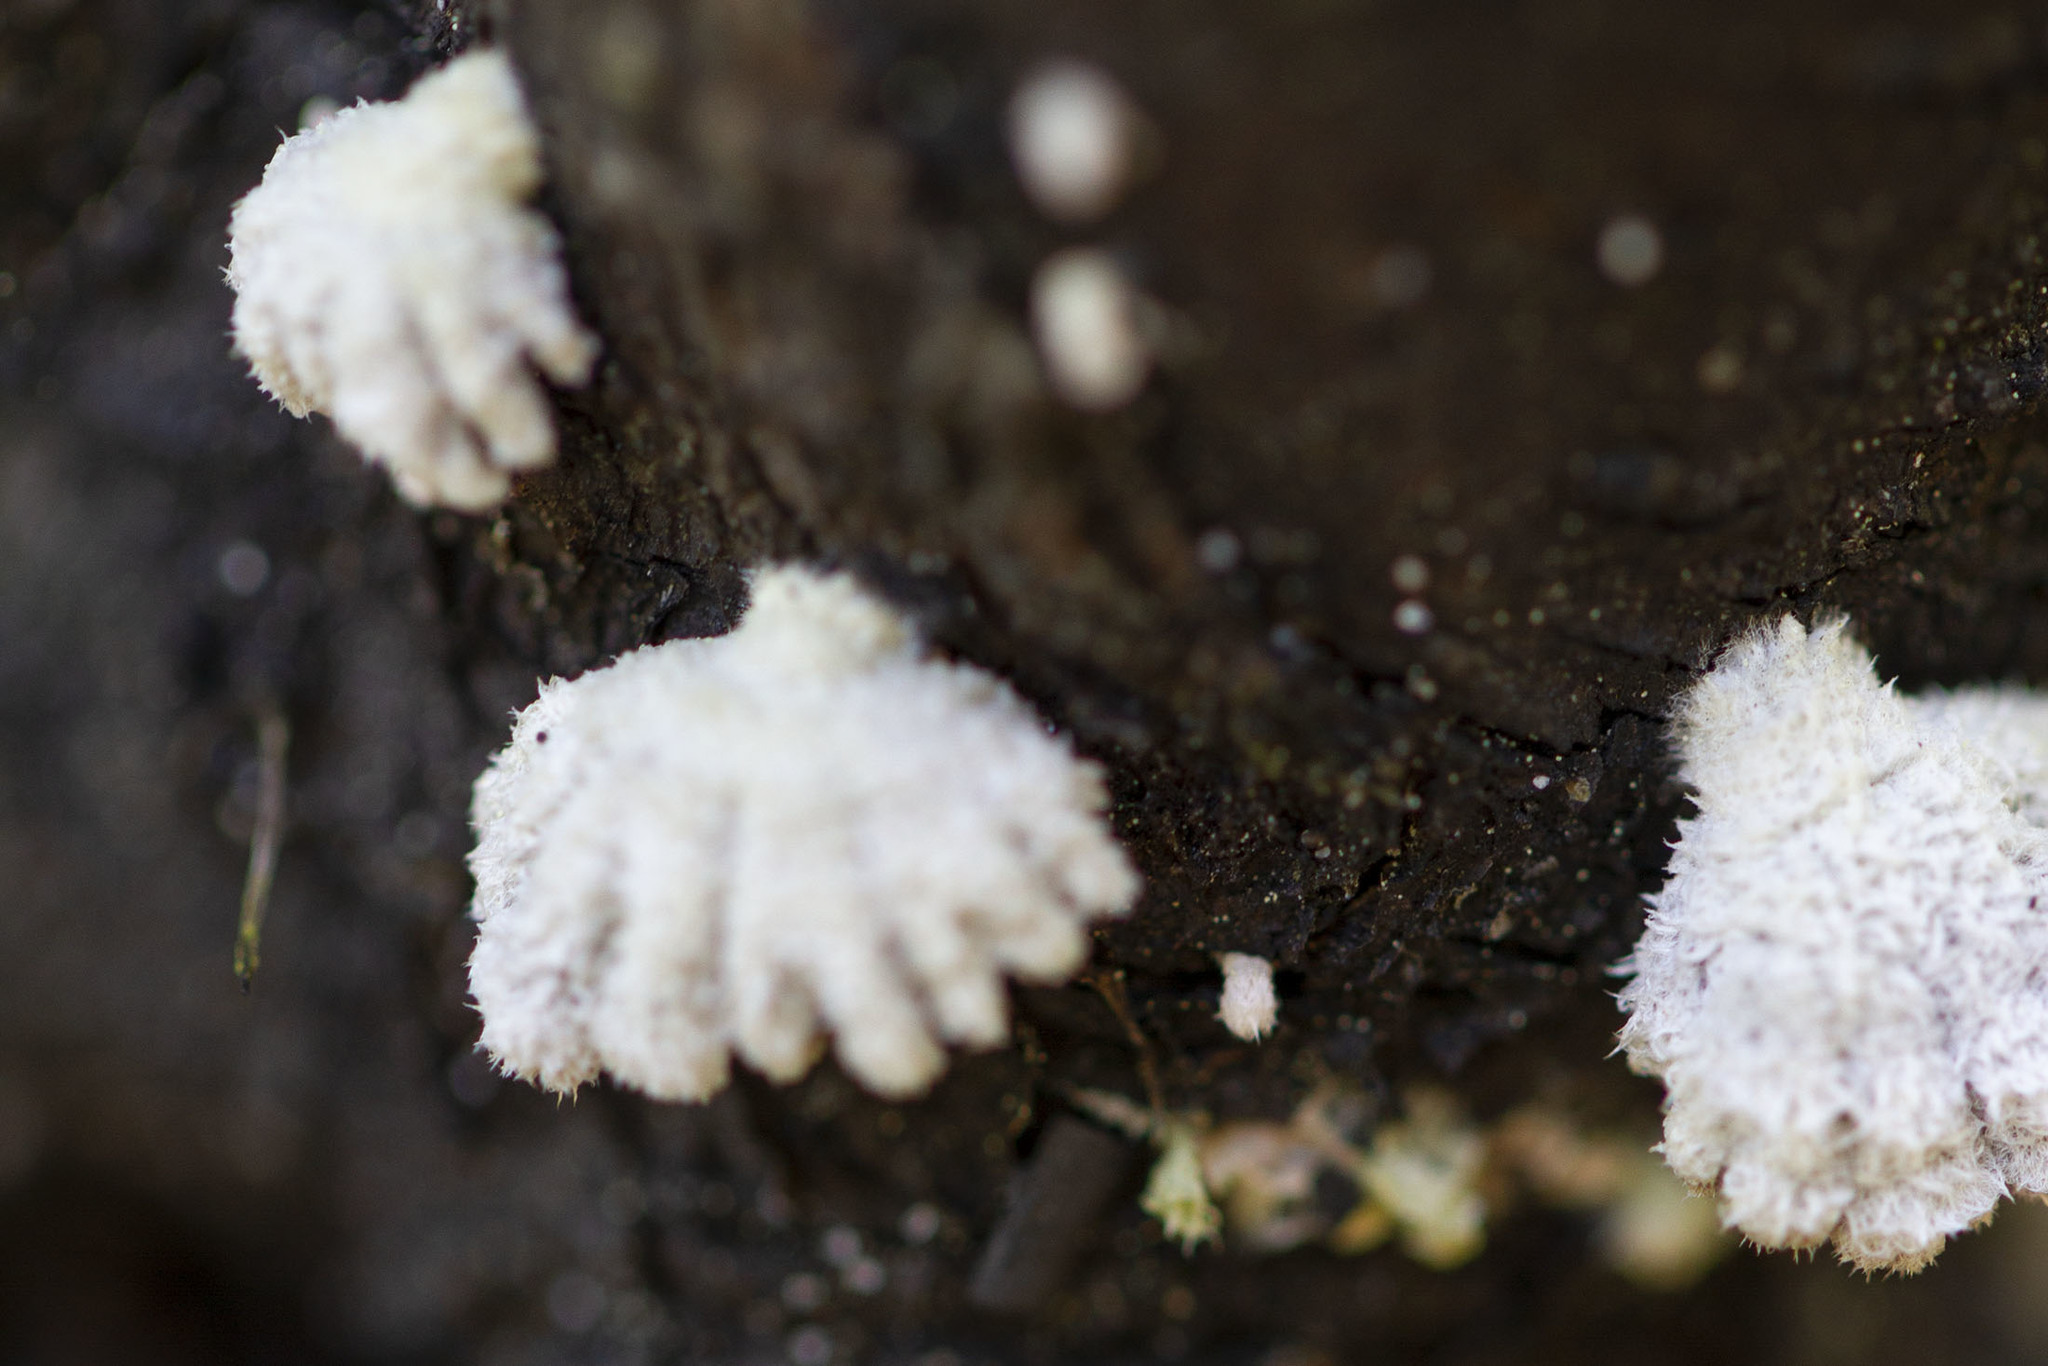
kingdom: Fungi
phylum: Basidiomycota
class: Agaricomycetes
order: Agaricales
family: Schizophyllaceae
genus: Schizophyllum
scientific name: Schizophyllum commune
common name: Common porecrust
